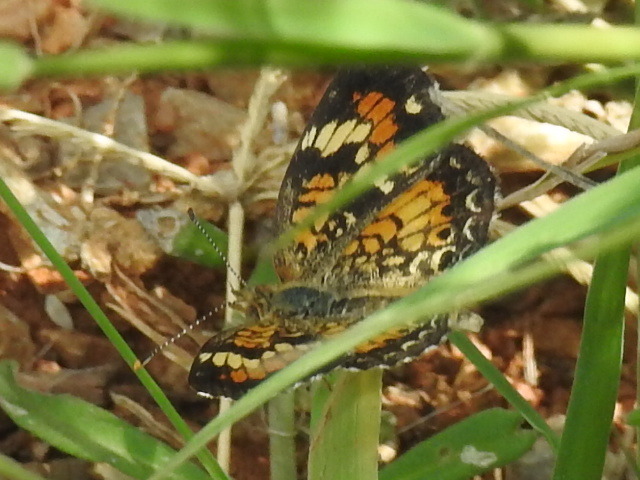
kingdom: Animalia
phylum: Arthropoda
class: Insecta
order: Lepidoptera
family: Nymphalidae
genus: Phyciodes
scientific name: Phyciodes phaon
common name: Phaon crescent
